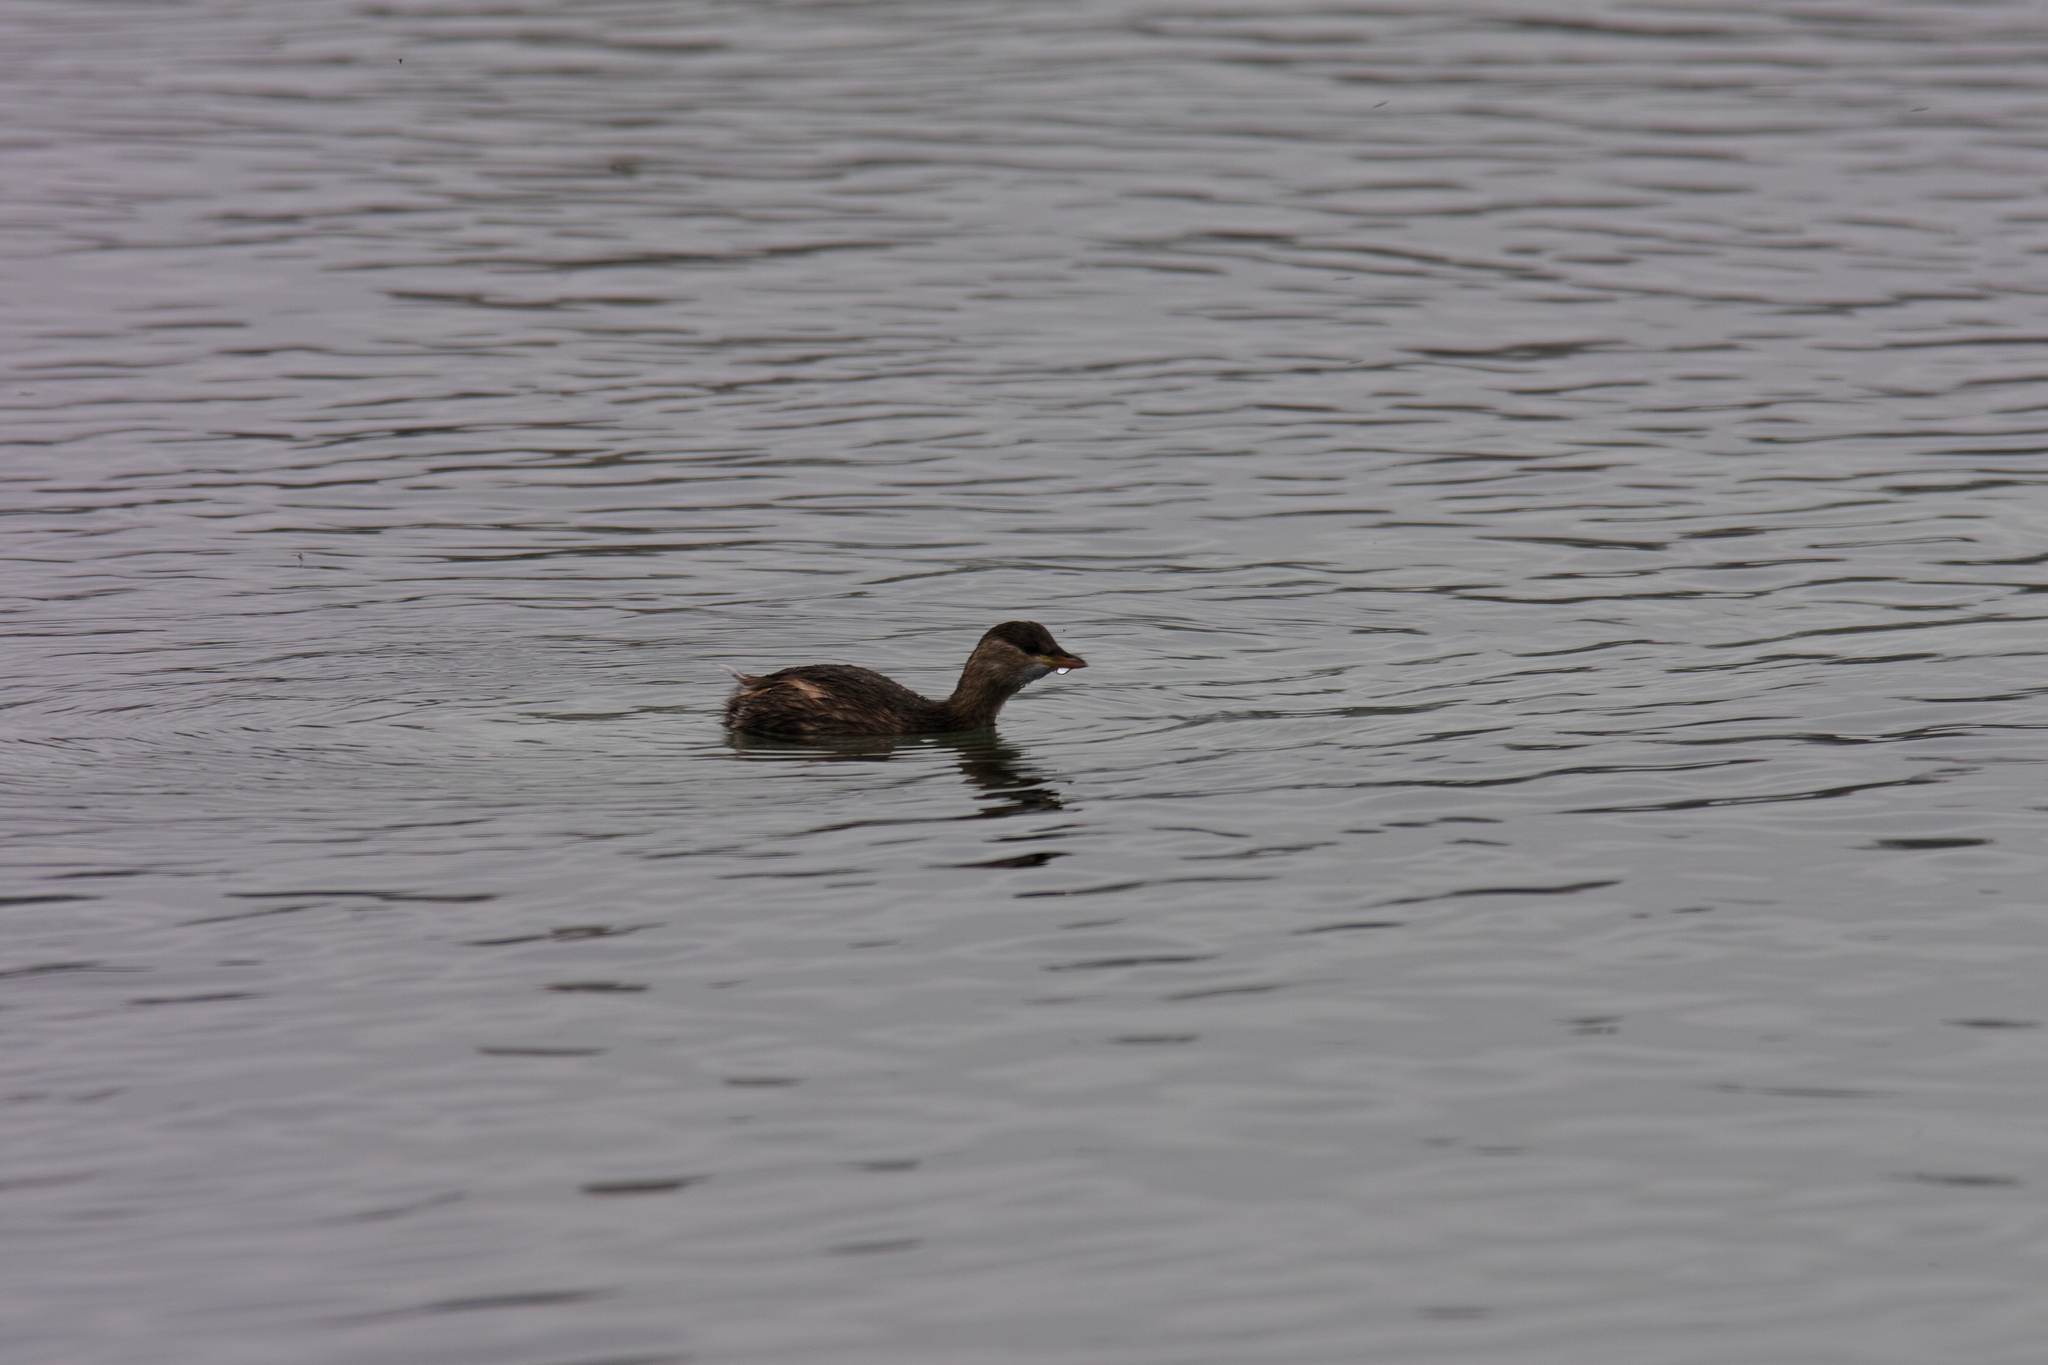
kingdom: Animalia
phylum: Chordata
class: Aves
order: Podicipediformes
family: Podicipedidae
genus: Tachybaptus
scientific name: Tachybaptus ruficollis
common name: Little grebe
